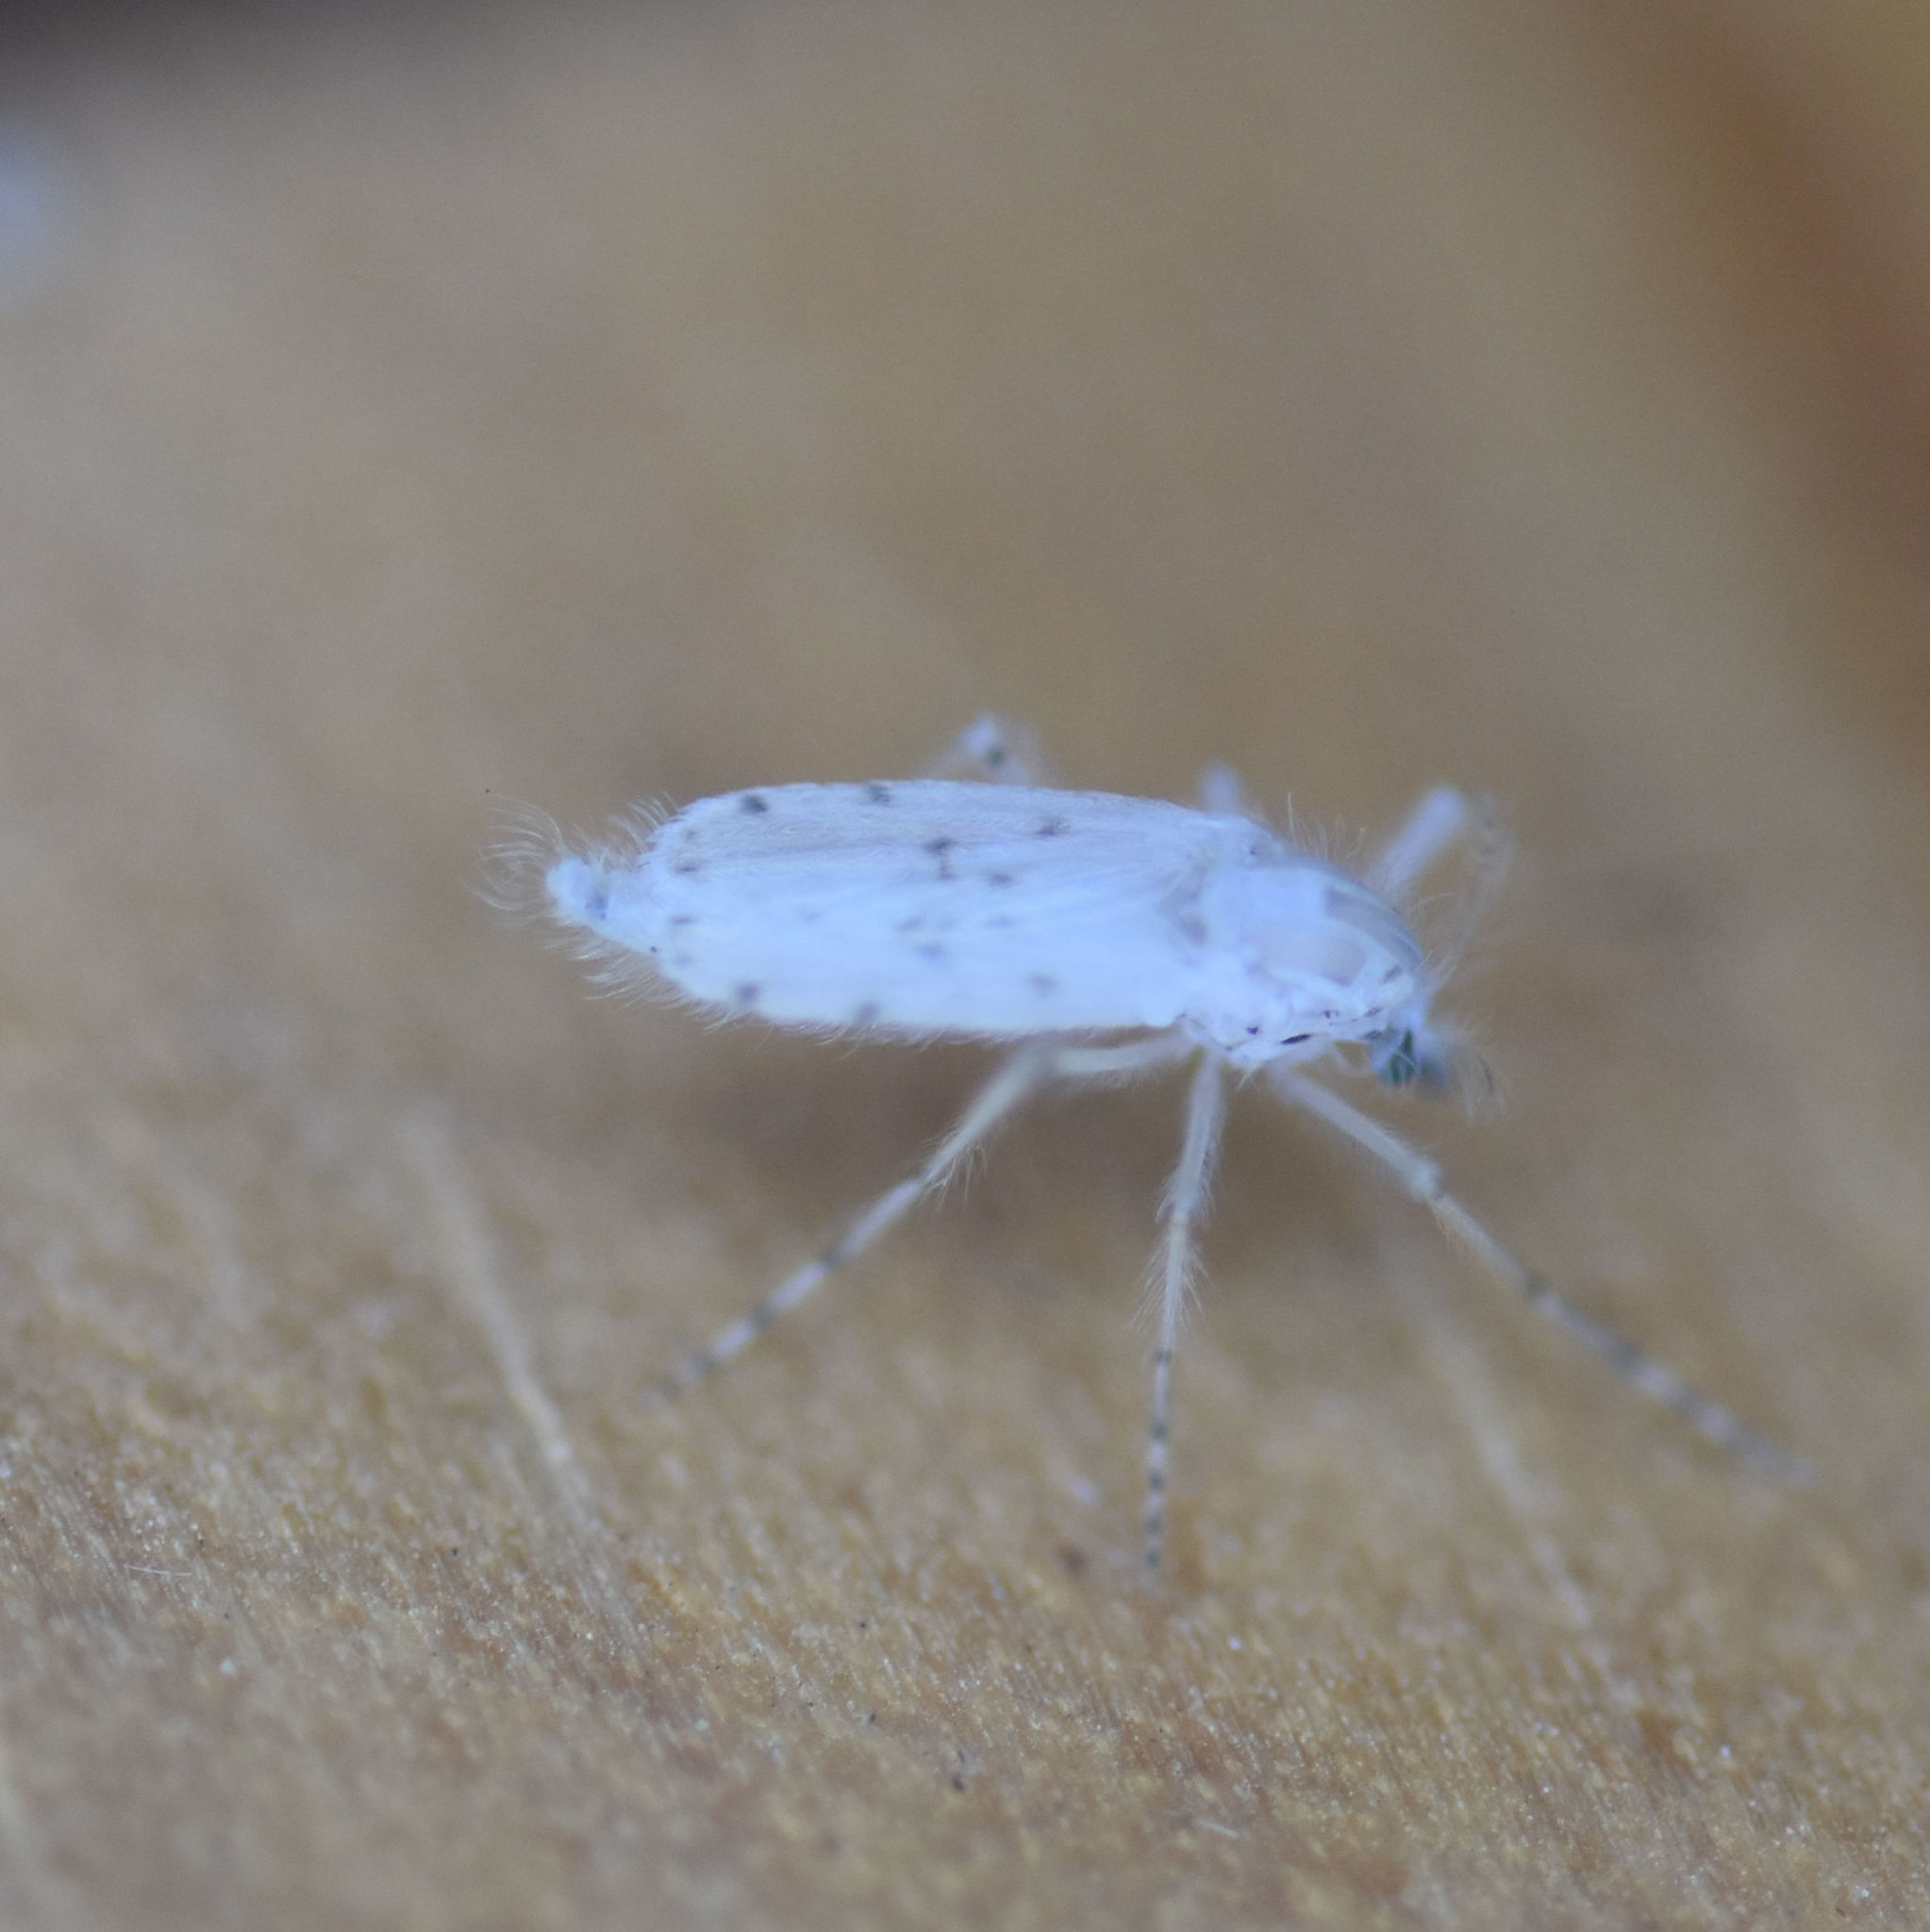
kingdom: Animalia
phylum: Arthropoda
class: Insecta
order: Diptera
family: Chaoboridae
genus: Chaoborus
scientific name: Chaoborus albatus
